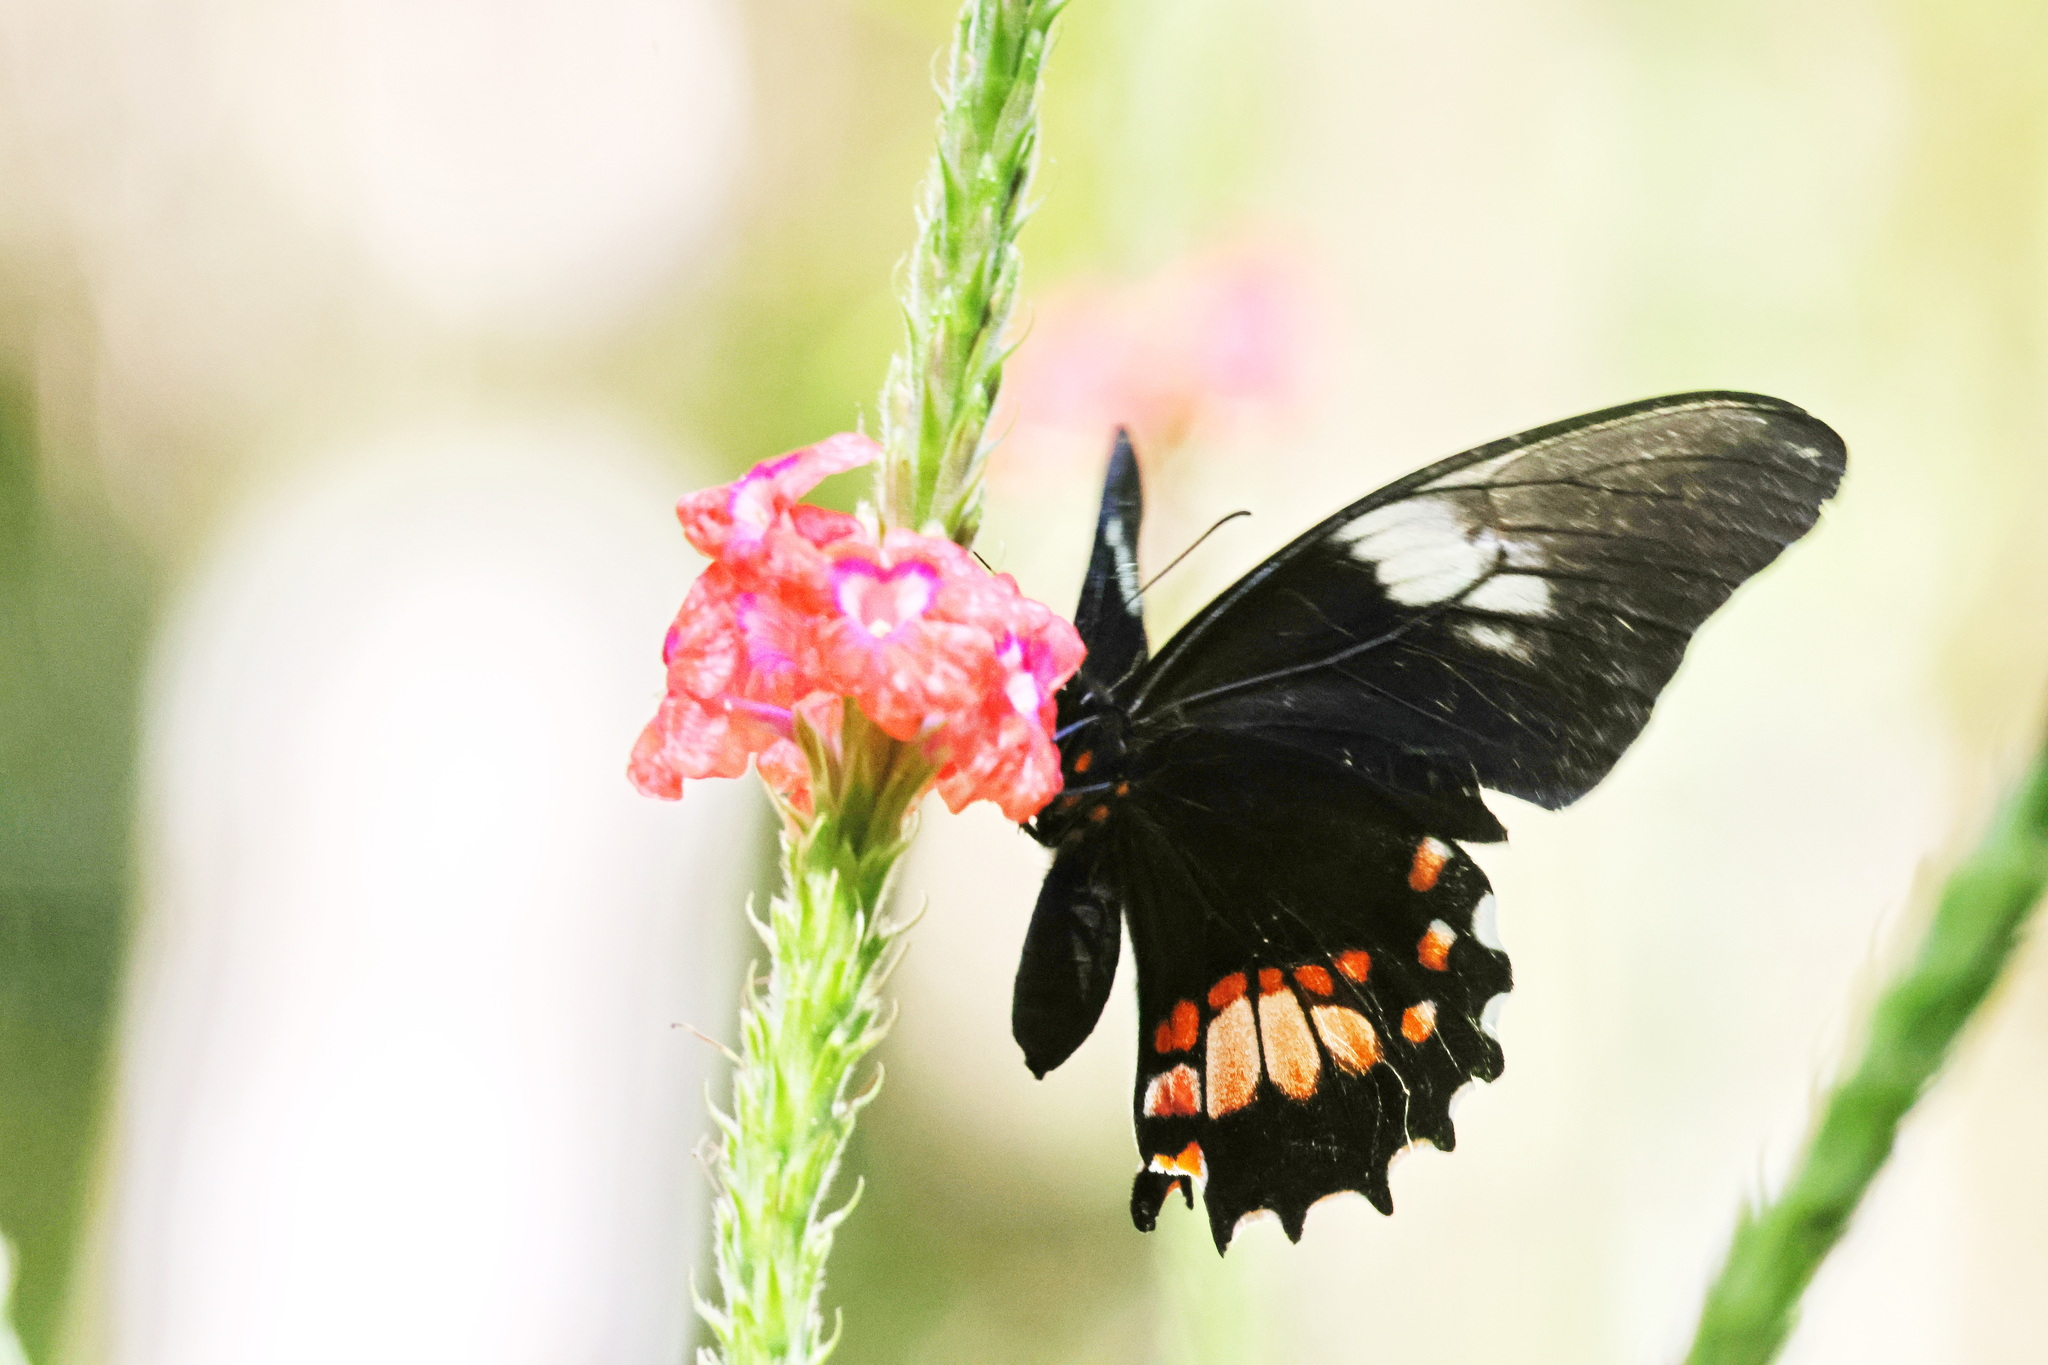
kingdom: Animalia
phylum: Arthropoda
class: Insecta
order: Lepidoptera
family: Papilionidae
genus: Papilio
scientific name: Papilio anchisiades
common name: Idaes swallowtail
